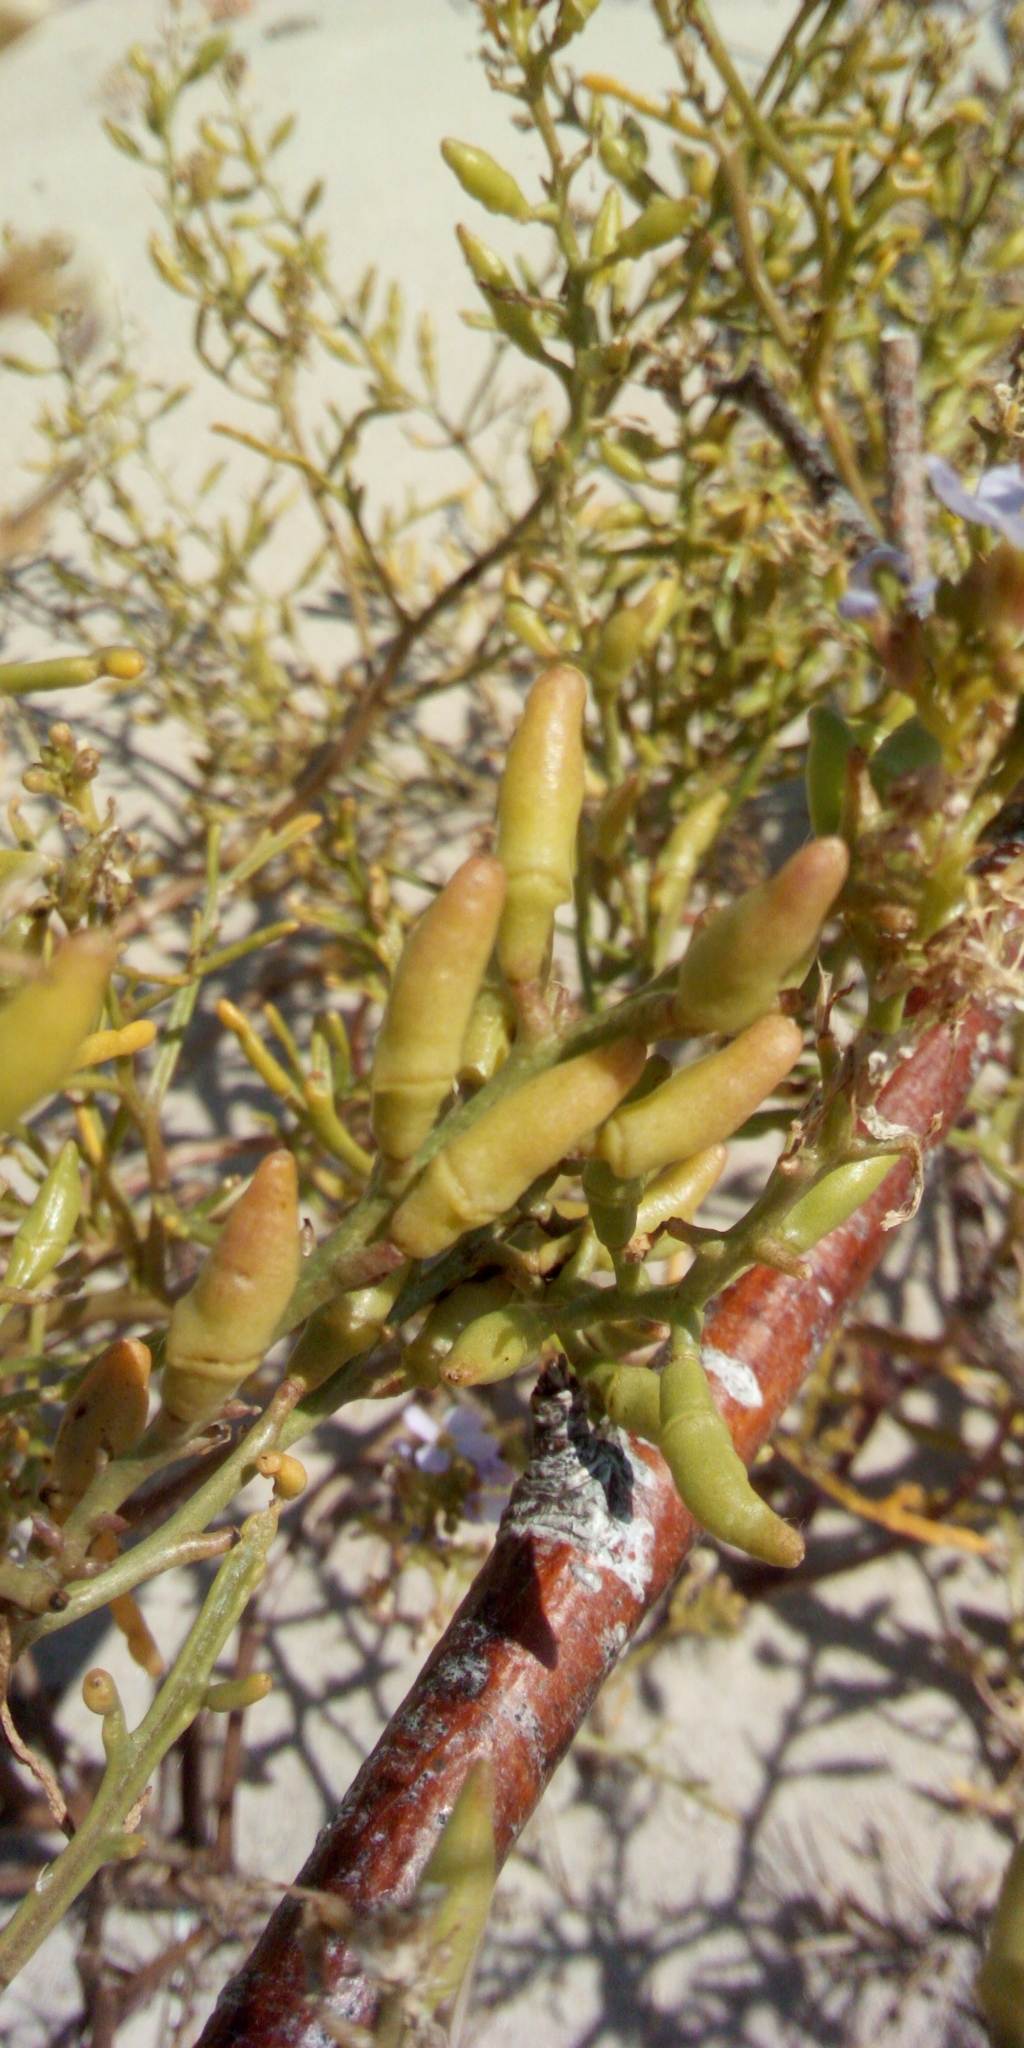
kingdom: Plantae
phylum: Tracheophyta
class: Magnoliopsida
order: Brassicales
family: Brassicaceae
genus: Cakile
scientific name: Cakile maritima
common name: Sea rocket
